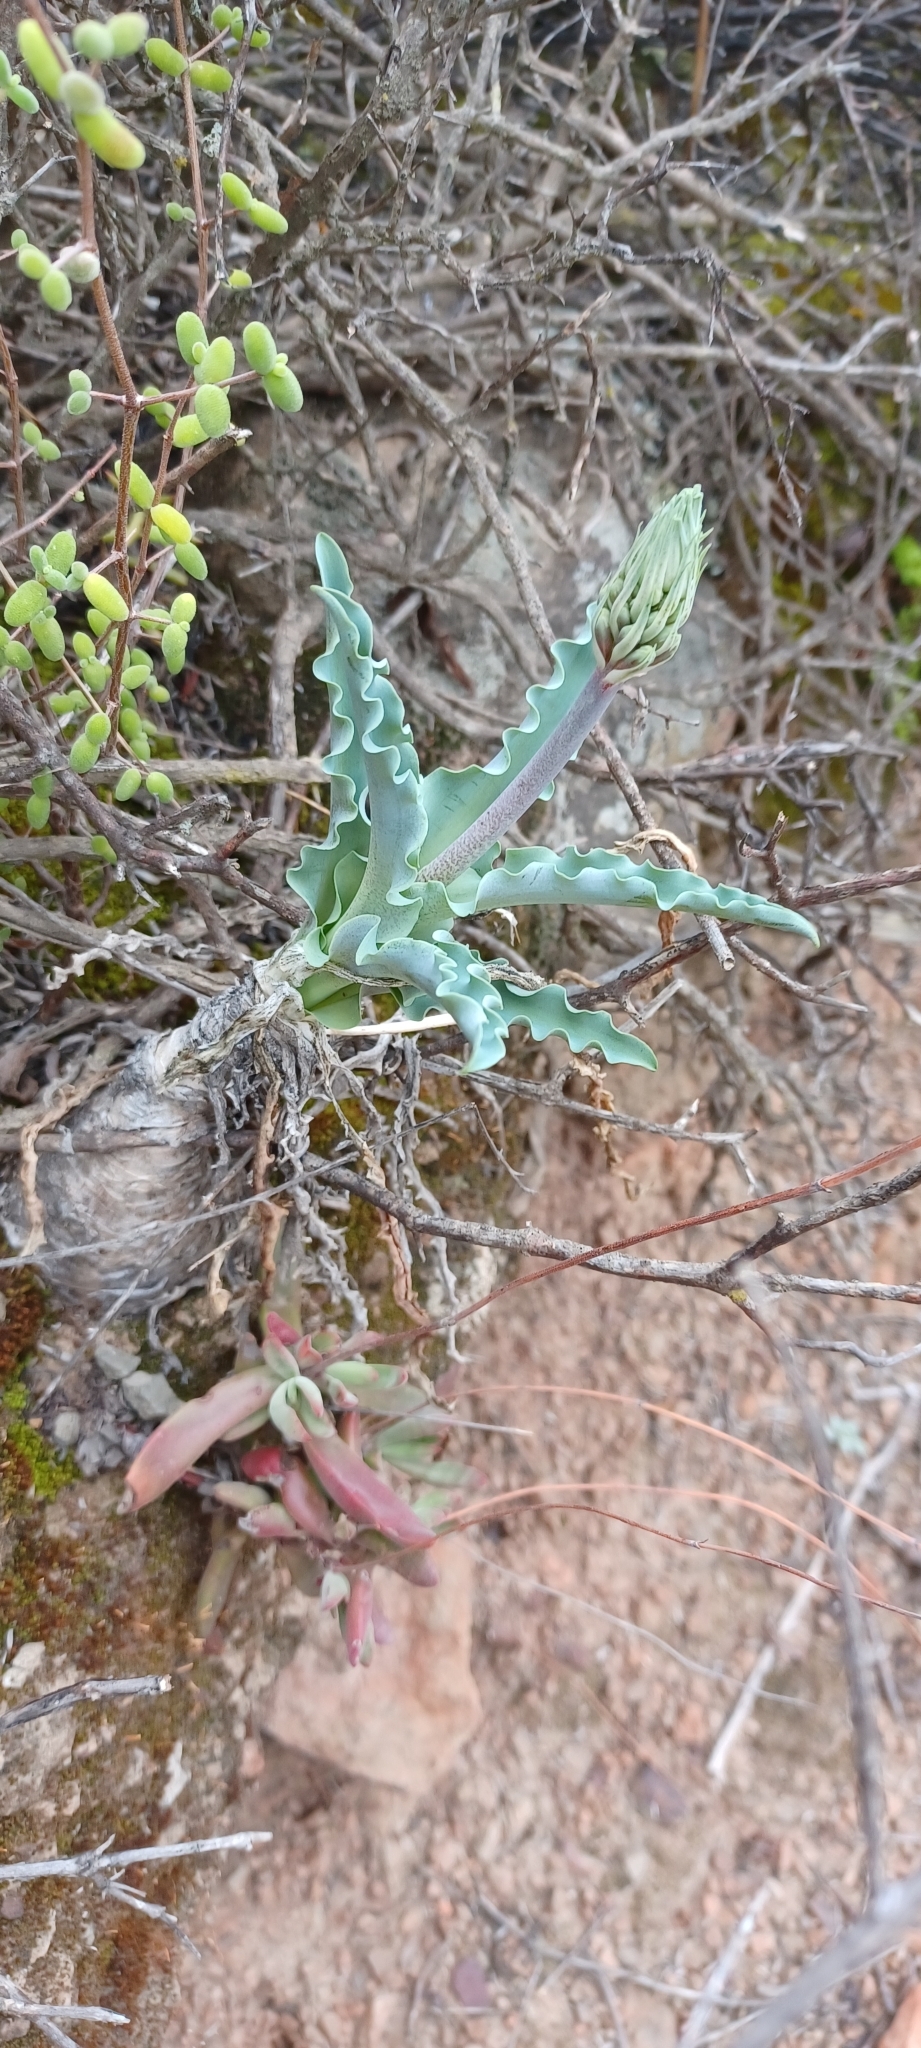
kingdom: Plantae
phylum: Tracheophyta
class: Liliopsida
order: Asparagales
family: Asparagaceae
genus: Veltheimia
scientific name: Veltheimia capensis
